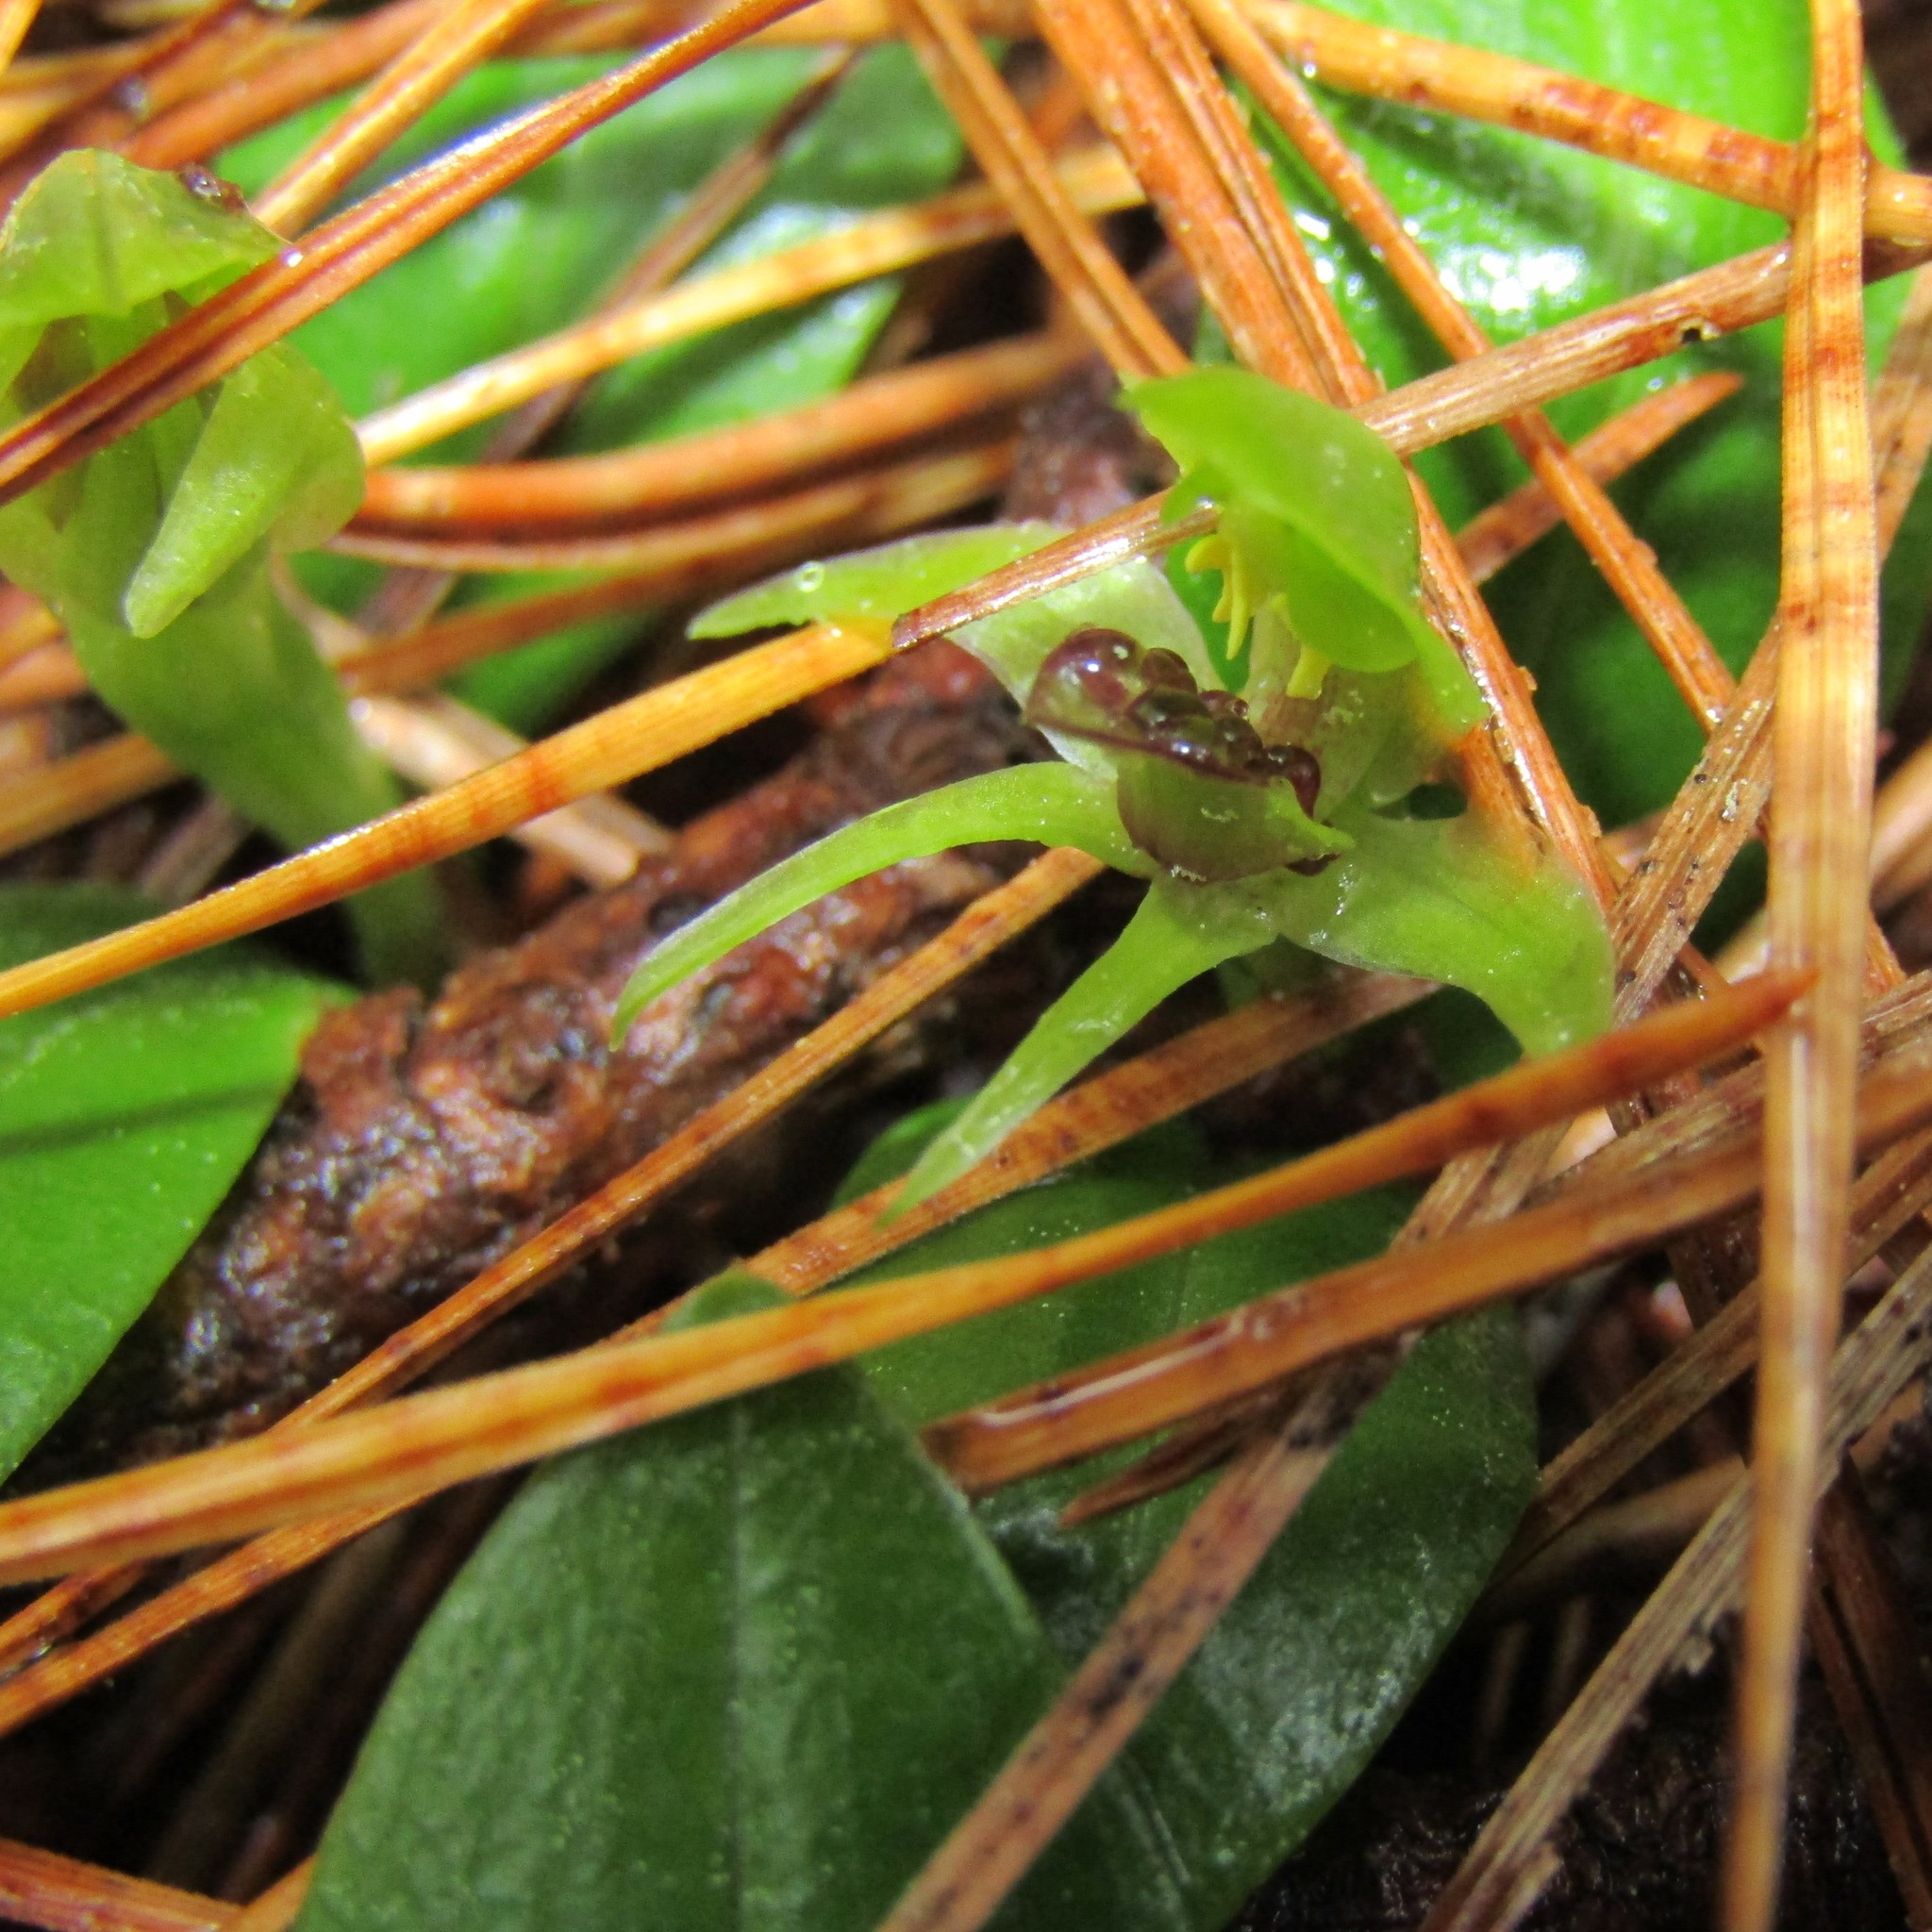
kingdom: Plantae
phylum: Tracheophyta
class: Liliopsida
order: Asparagales
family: Orchidaceae
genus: Chiloglottis
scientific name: Chiloglottis cornuta
